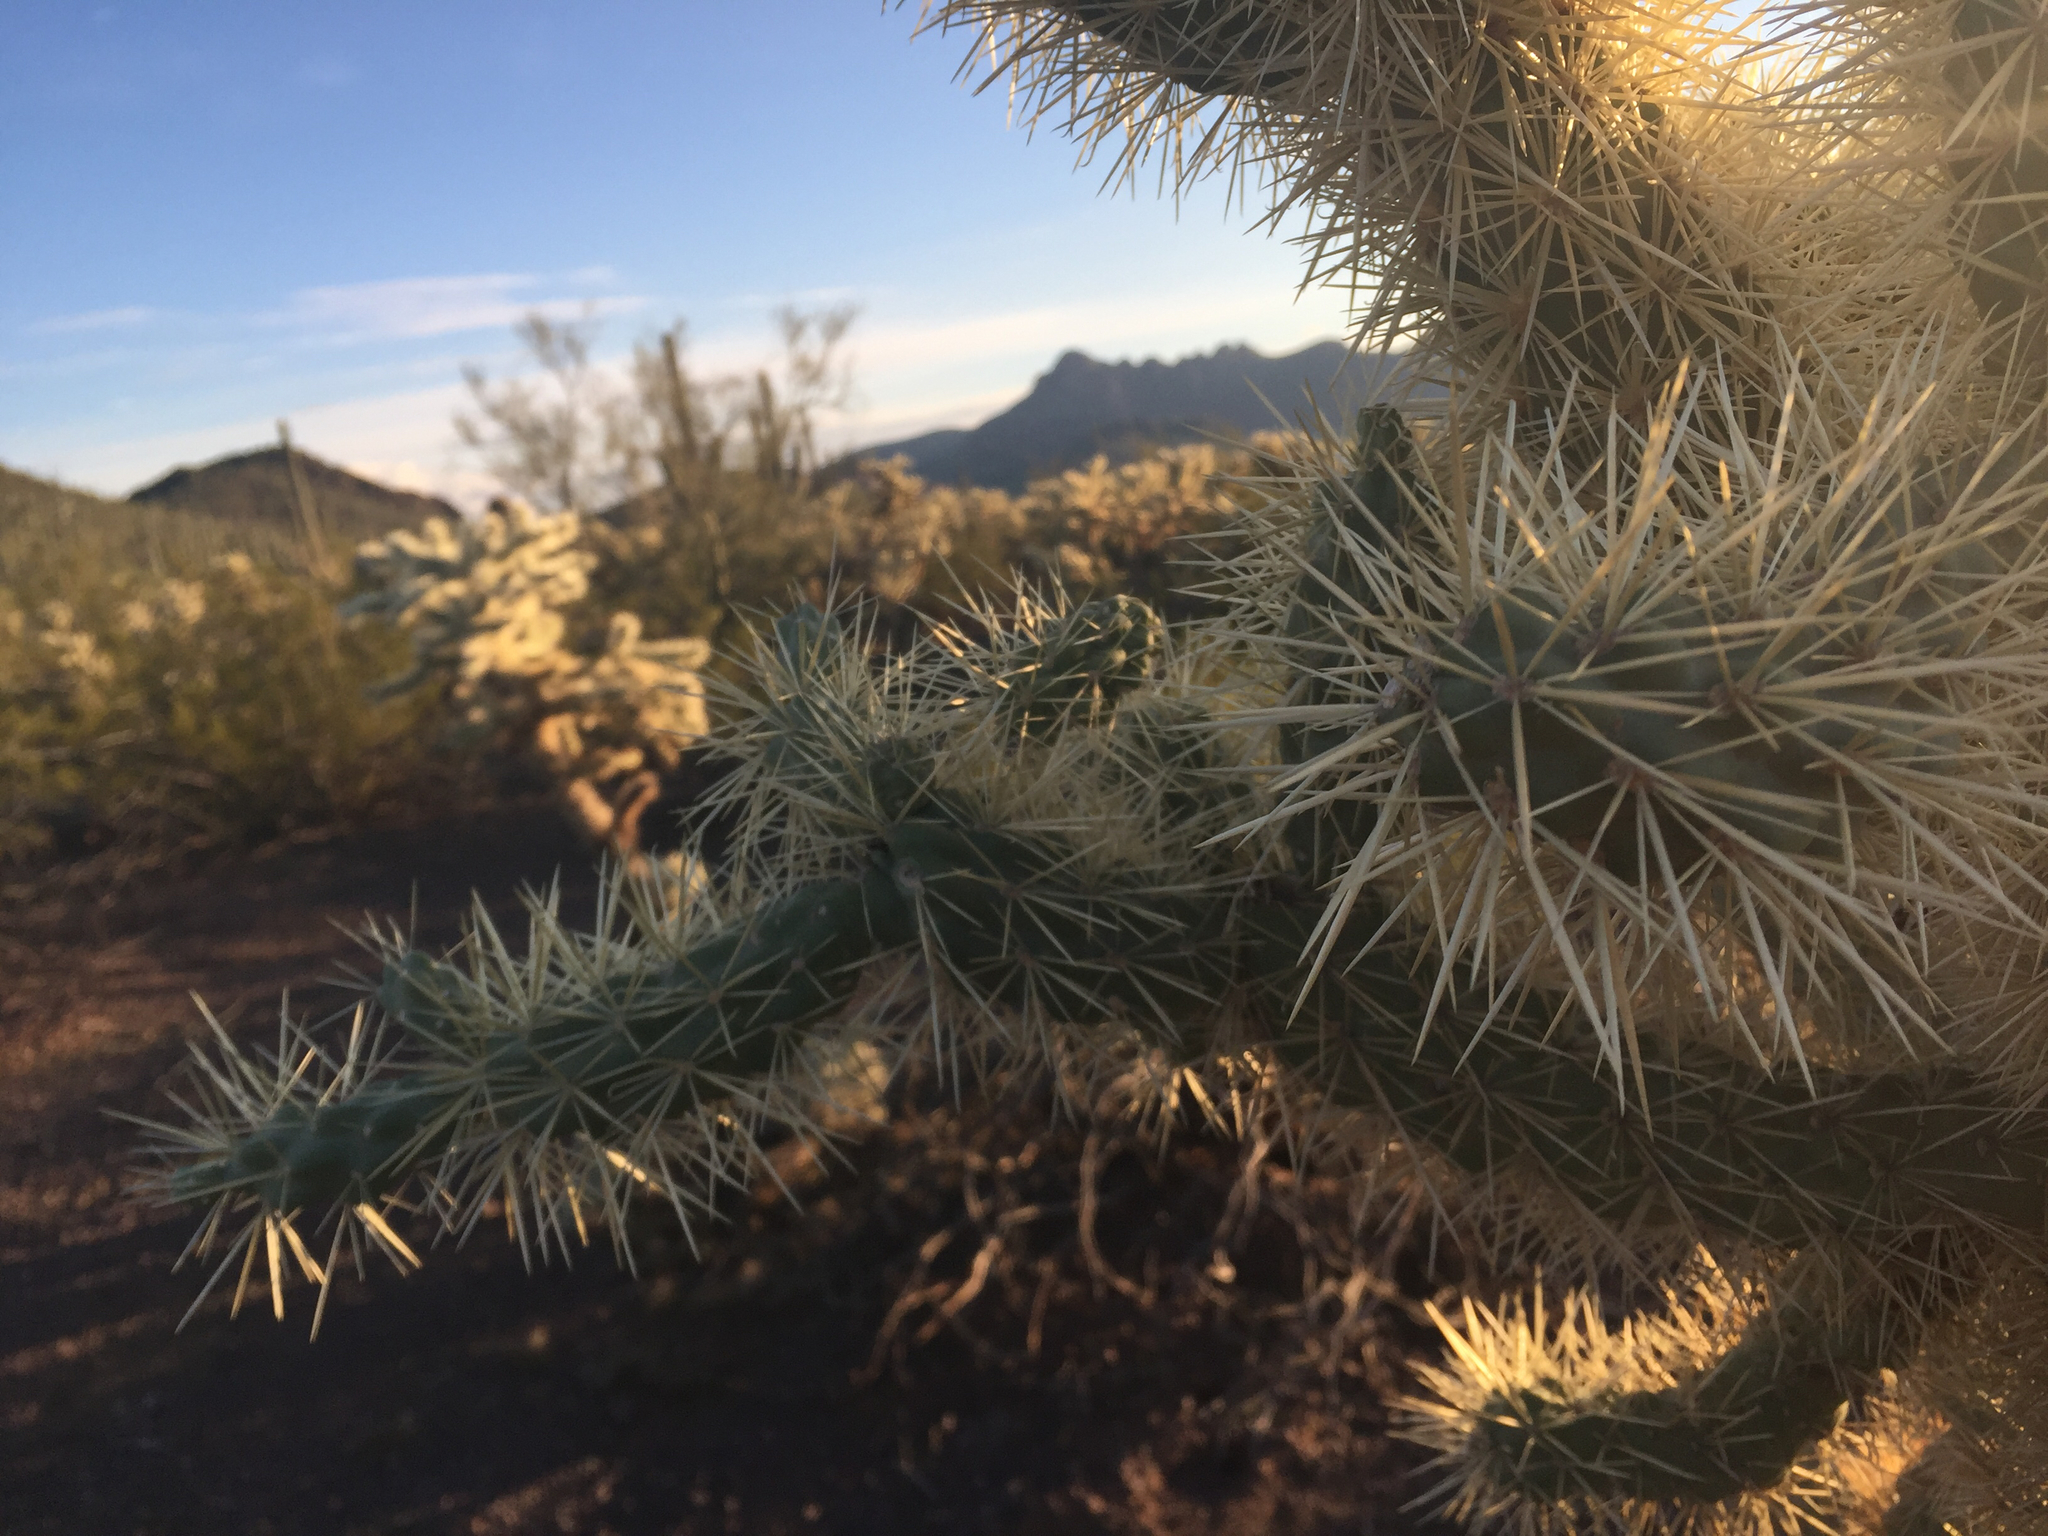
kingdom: Plantae
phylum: Tracheophyta
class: Magnoliopsida
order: Caryophyllales
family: Cactaceae
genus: Cylindropuntia
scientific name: Cylindropuntia fulgida
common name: Jumping cholla
